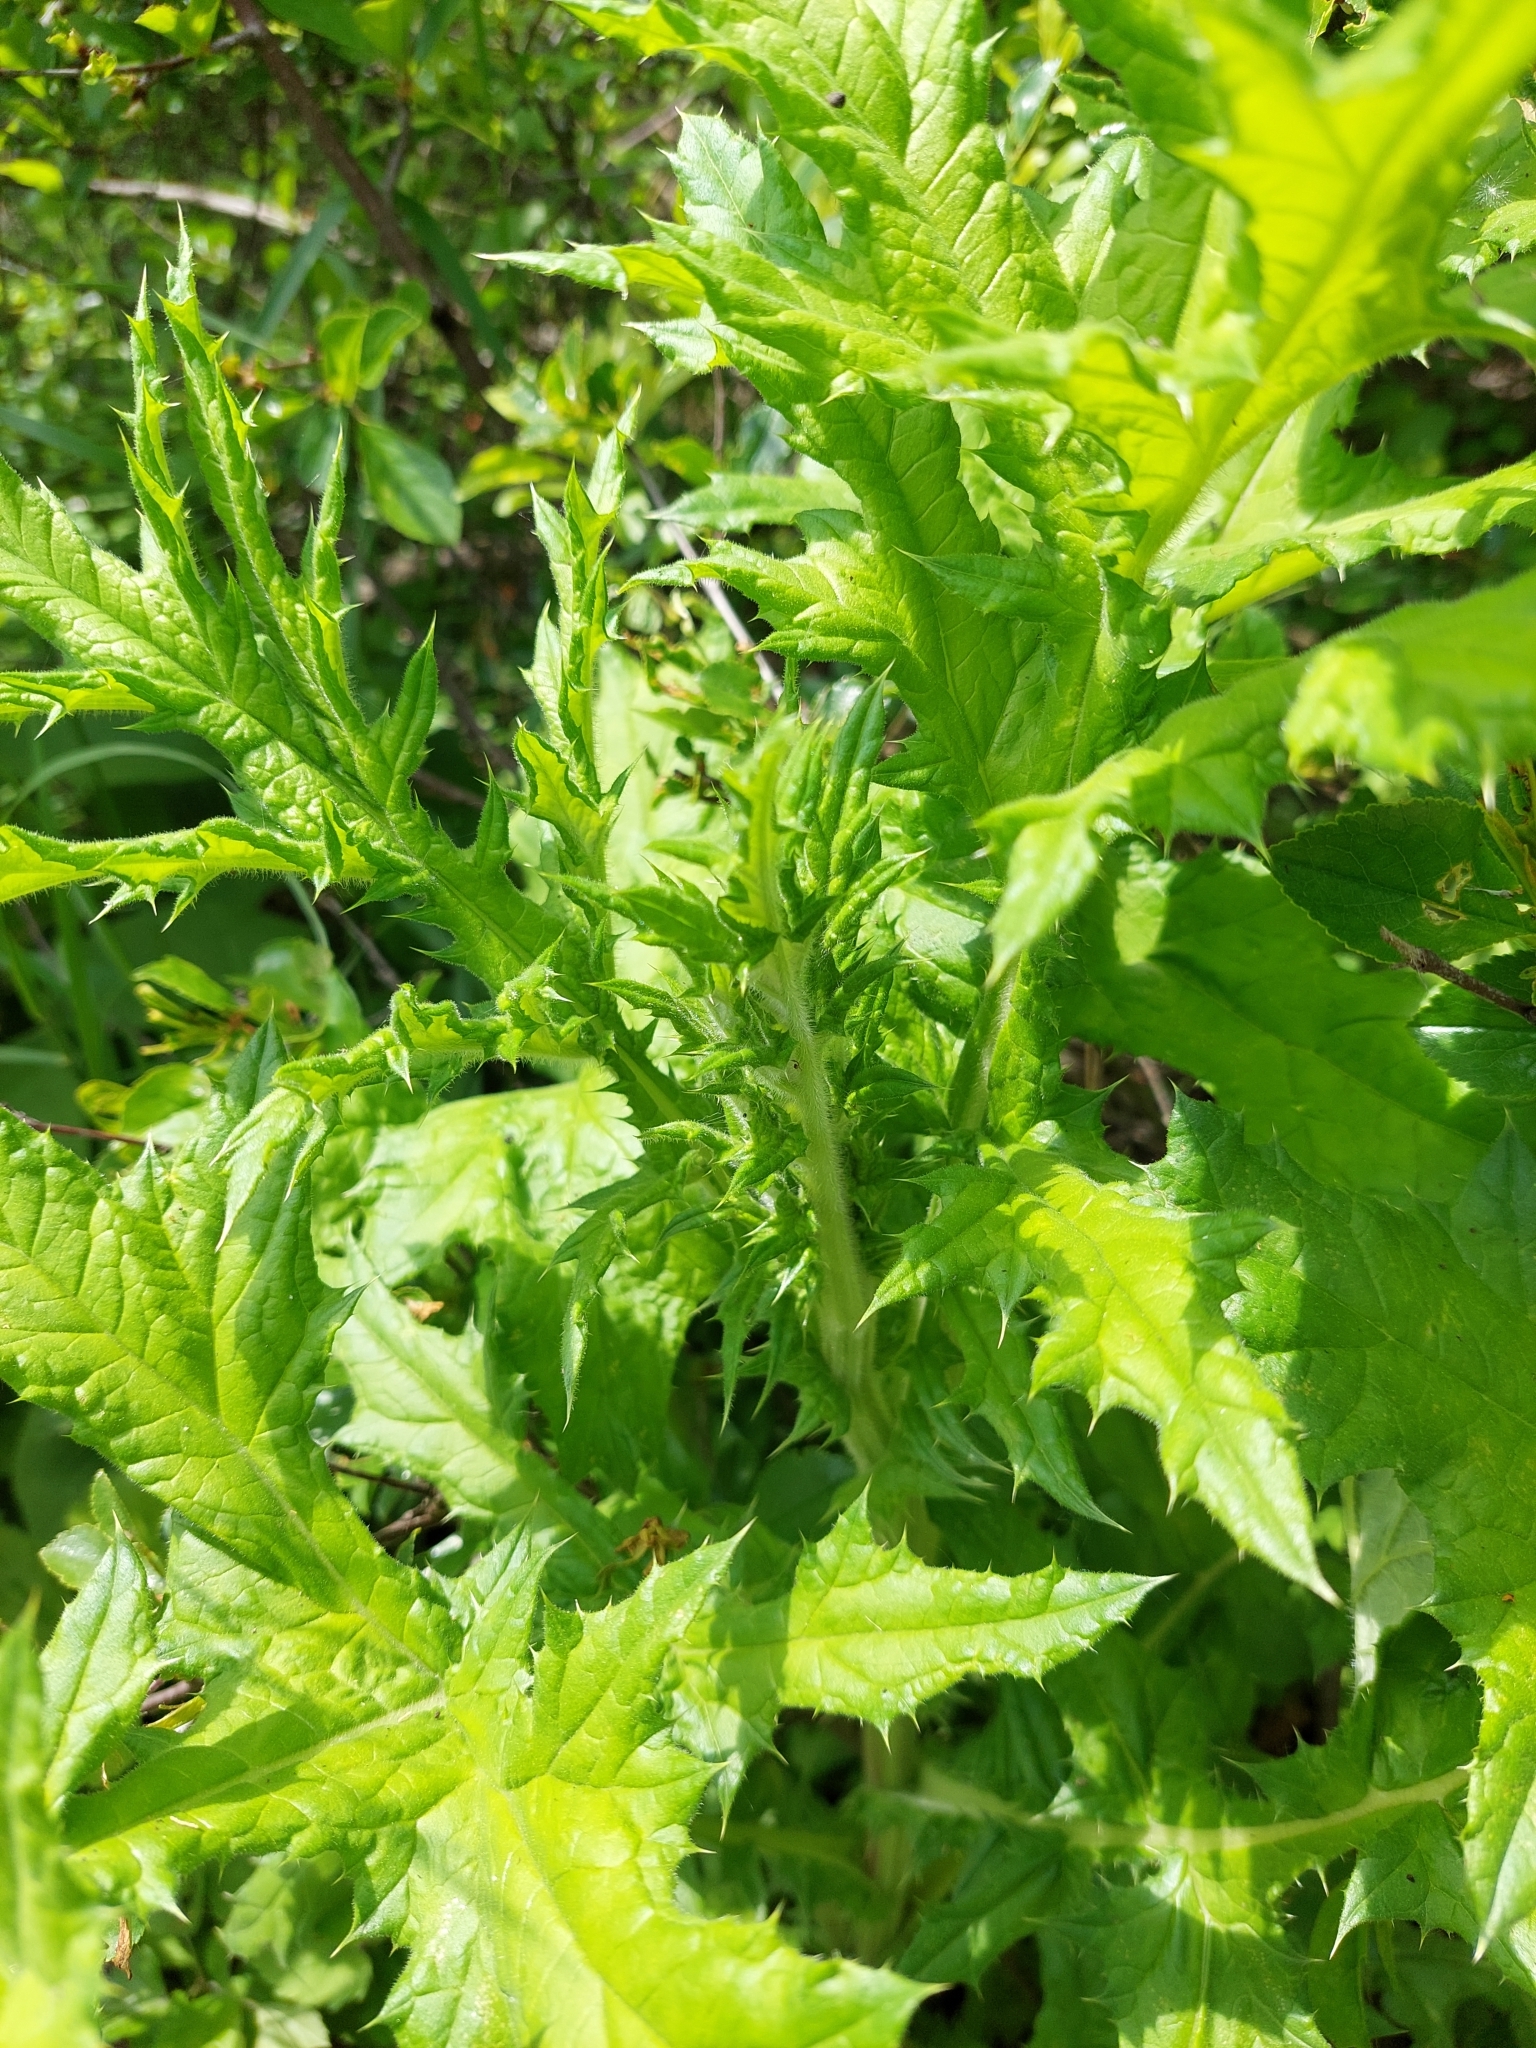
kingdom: Plantae
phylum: Tracheophyta
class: Magnoliopsida
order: Asterales
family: Asteraceae
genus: Echinops
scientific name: Echinops sphaerocephalus
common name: Glandular globe-thistle
